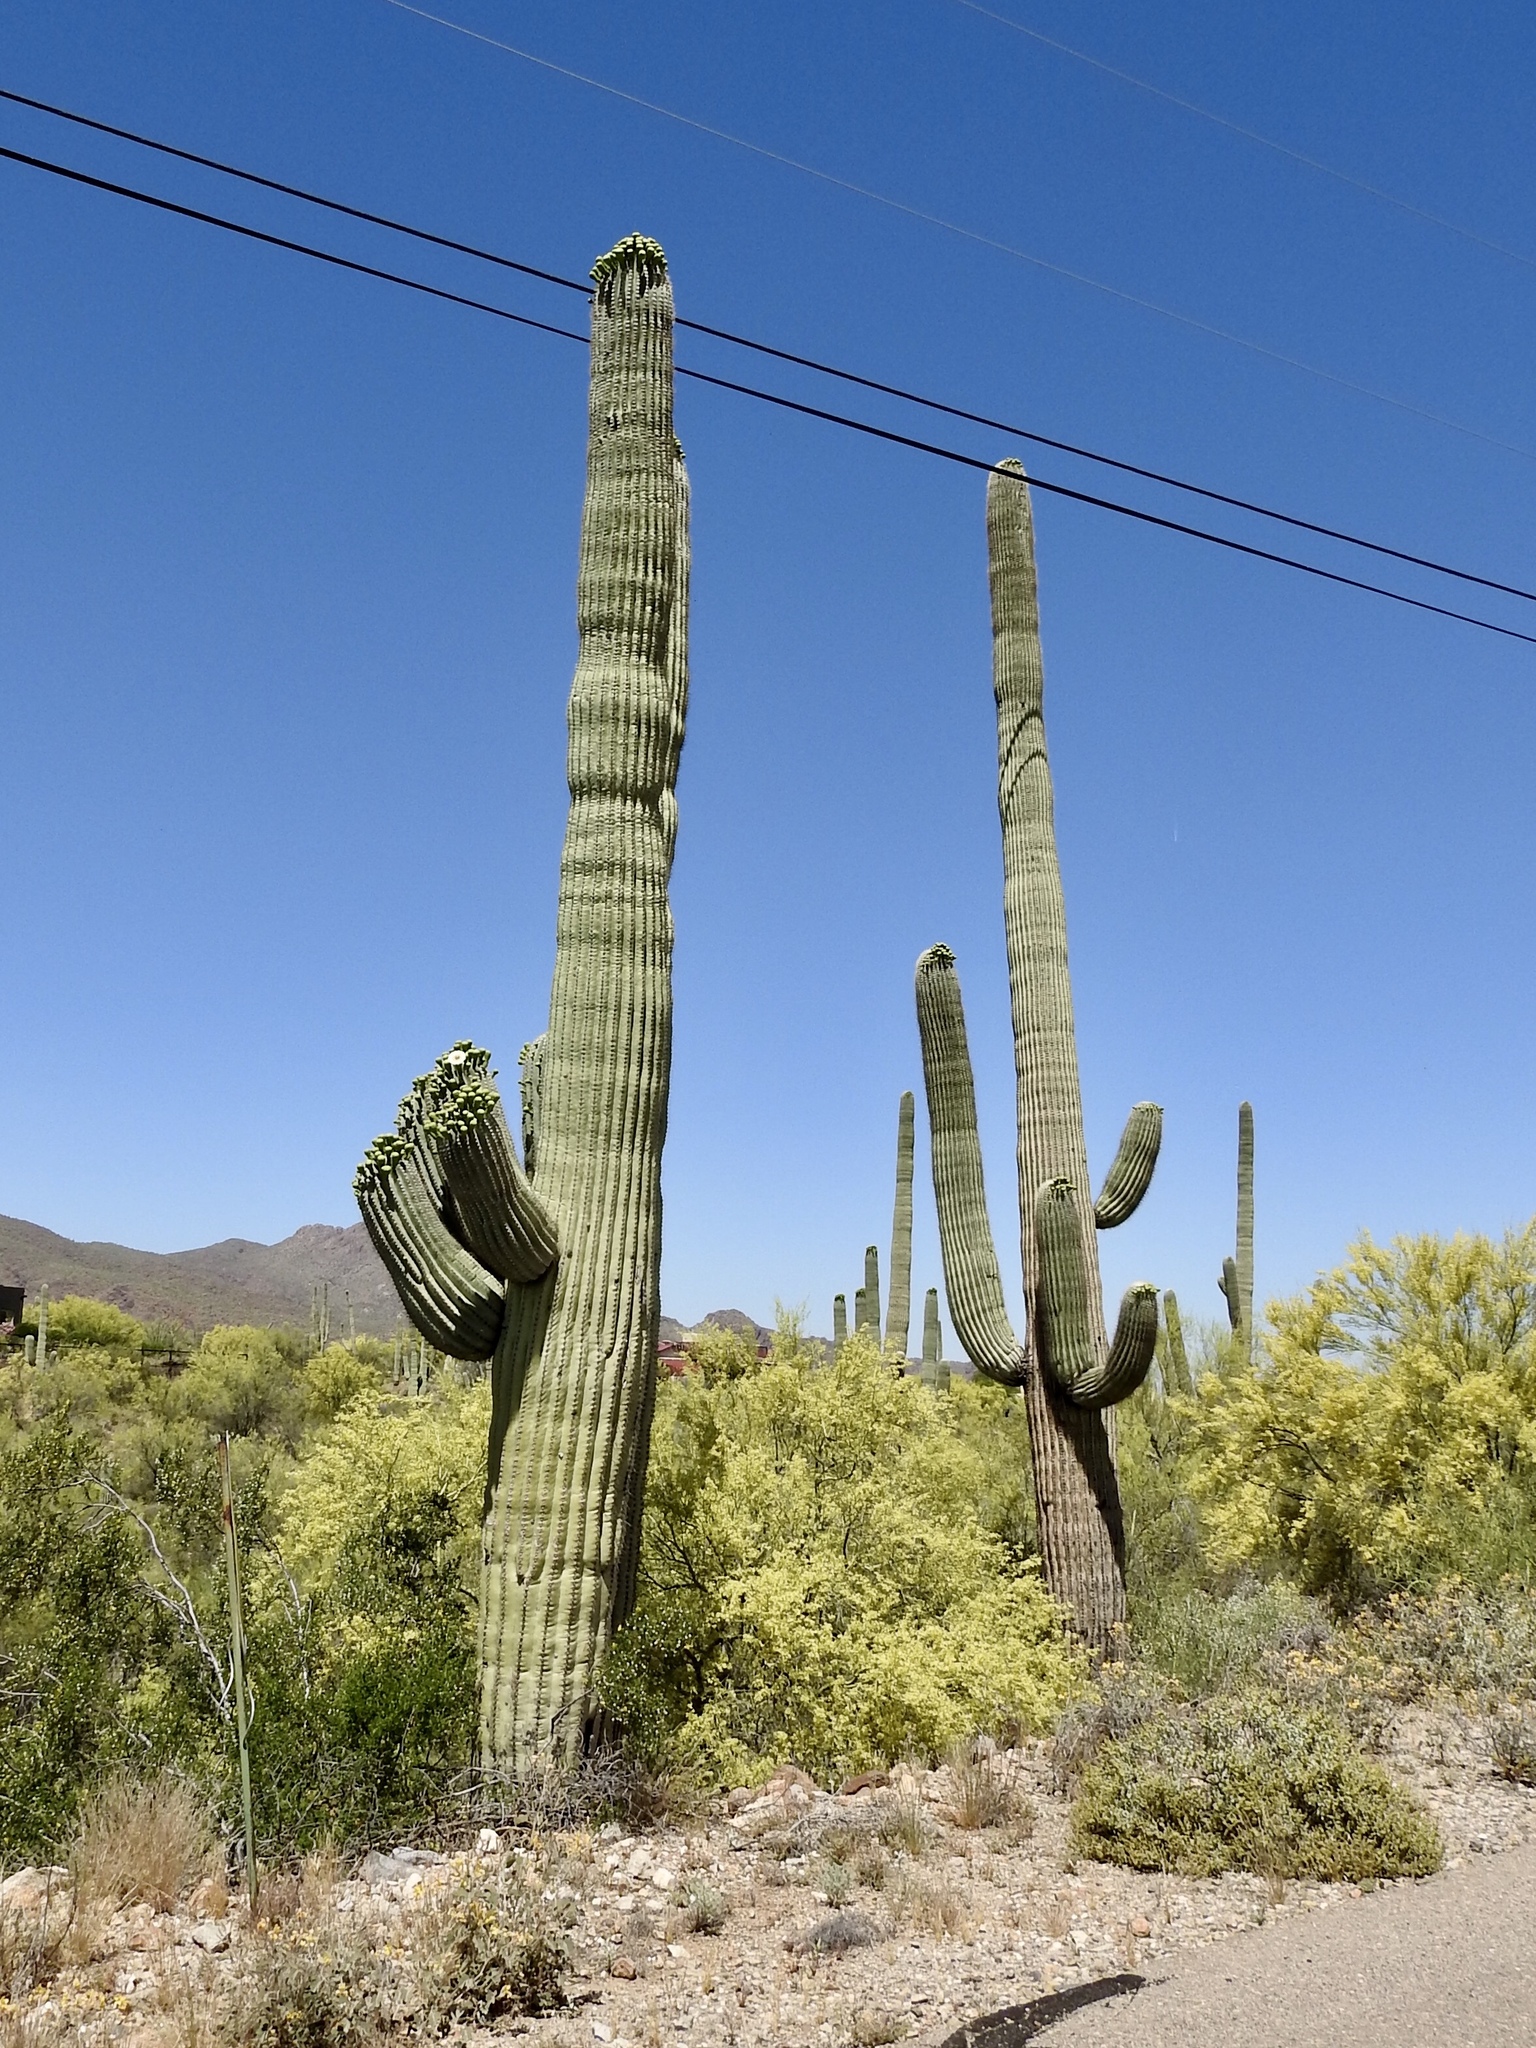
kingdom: Plantae
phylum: Tracheophyta
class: Magnoliopsida
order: Caryophyllales
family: Cactaceae
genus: Carnegiea
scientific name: Carnegiea gigantea
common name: Saguaro
